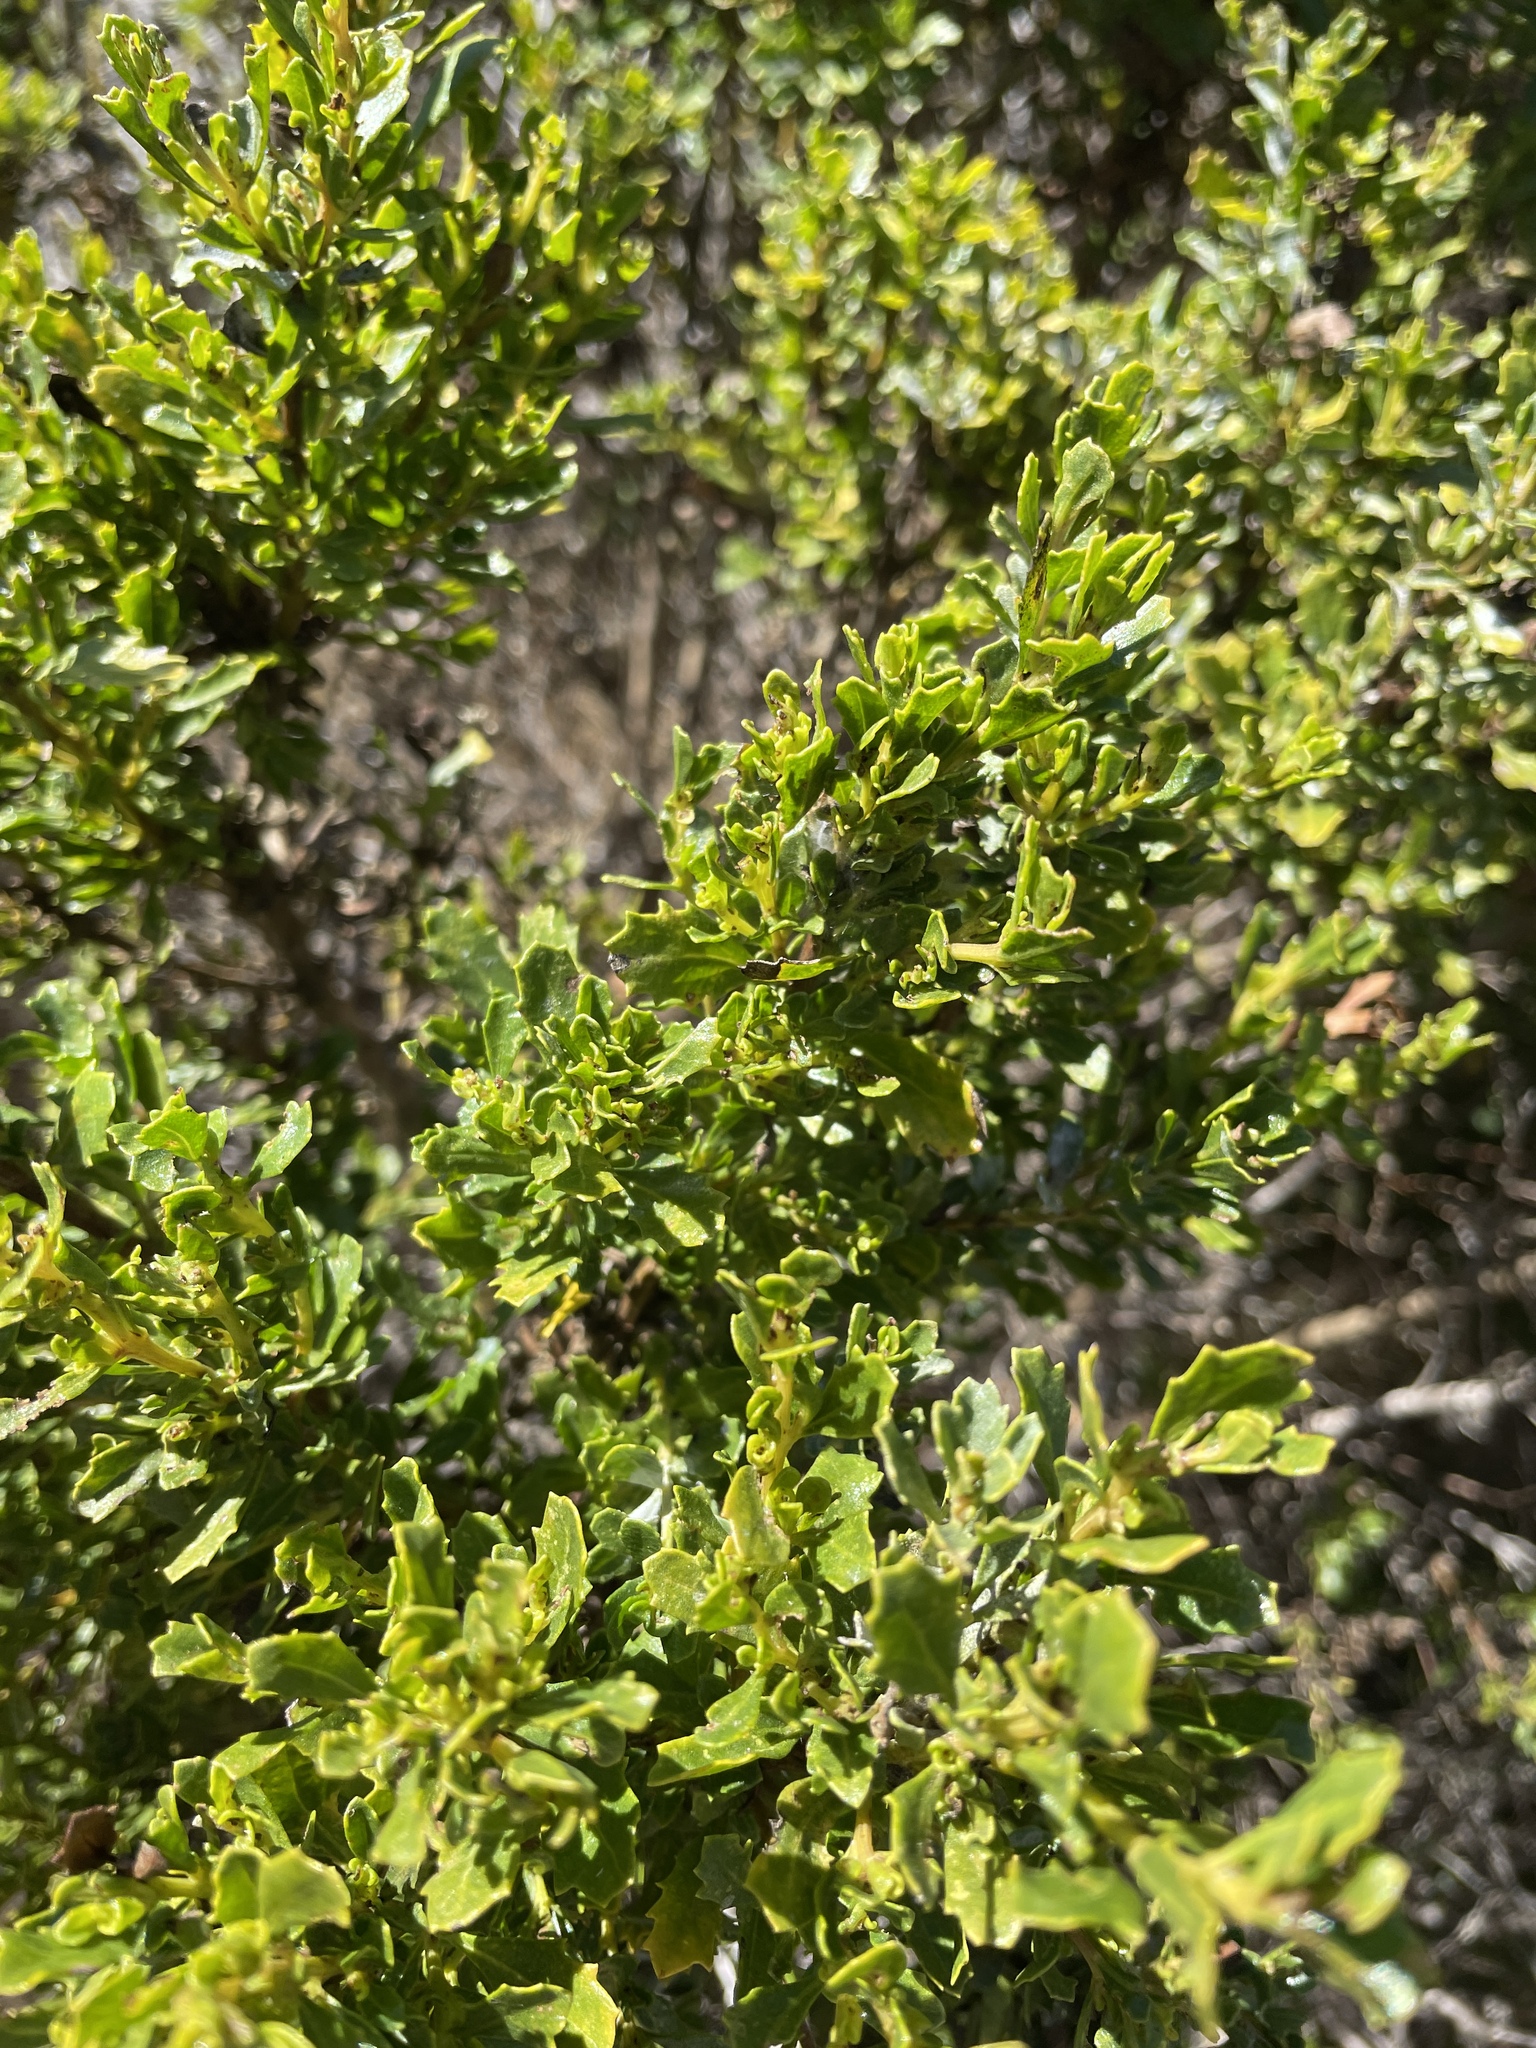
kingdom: Plantae
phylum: Tracheophyta
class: Magnoliopsida
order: Asterales
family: Asteraceae
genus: Baccharis
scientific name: Baccharis pilularis
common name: Coyotebrush
